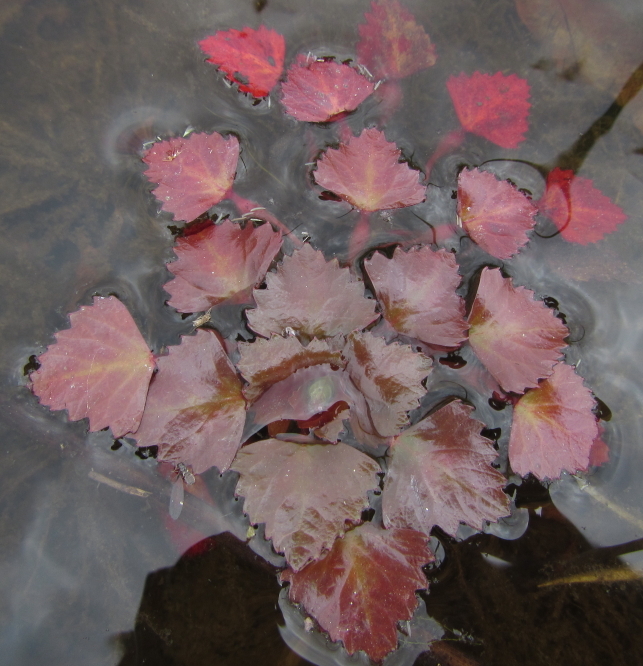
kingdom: Plantae
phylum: Tracheophyta
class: Magnoliopsida
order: Myrtales
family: Lythraceae
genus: Trapa
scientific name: Trapa natans
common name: Water chestnut
